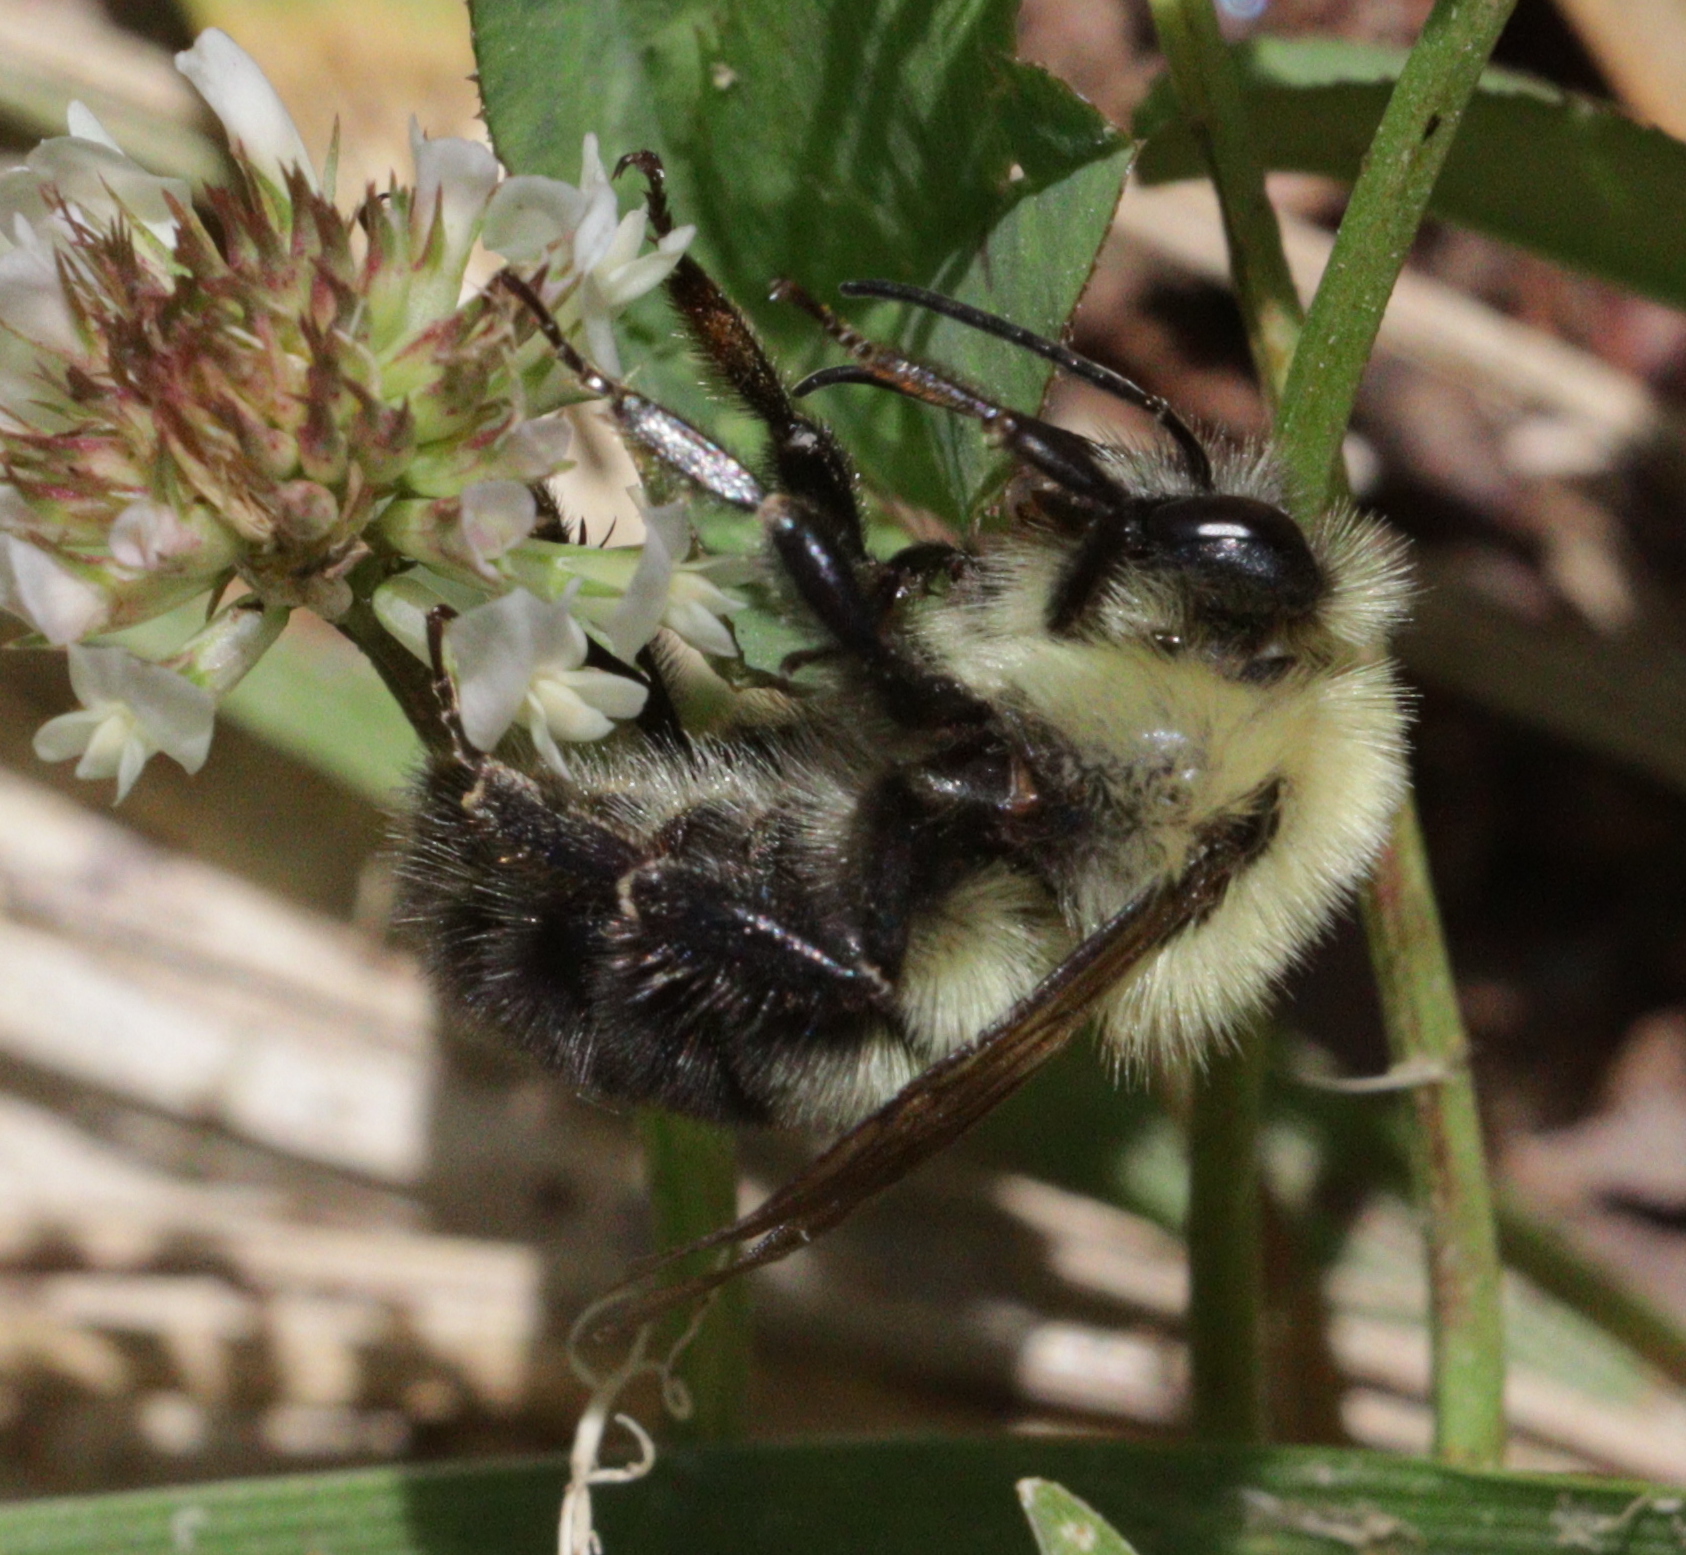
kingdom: Animalia
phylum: Arthropoda
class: Insecta
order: Hymenoptera
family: Apidae
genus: Bombus
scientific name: Bombus bimaculatus
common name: Two-spotted bumble bee
